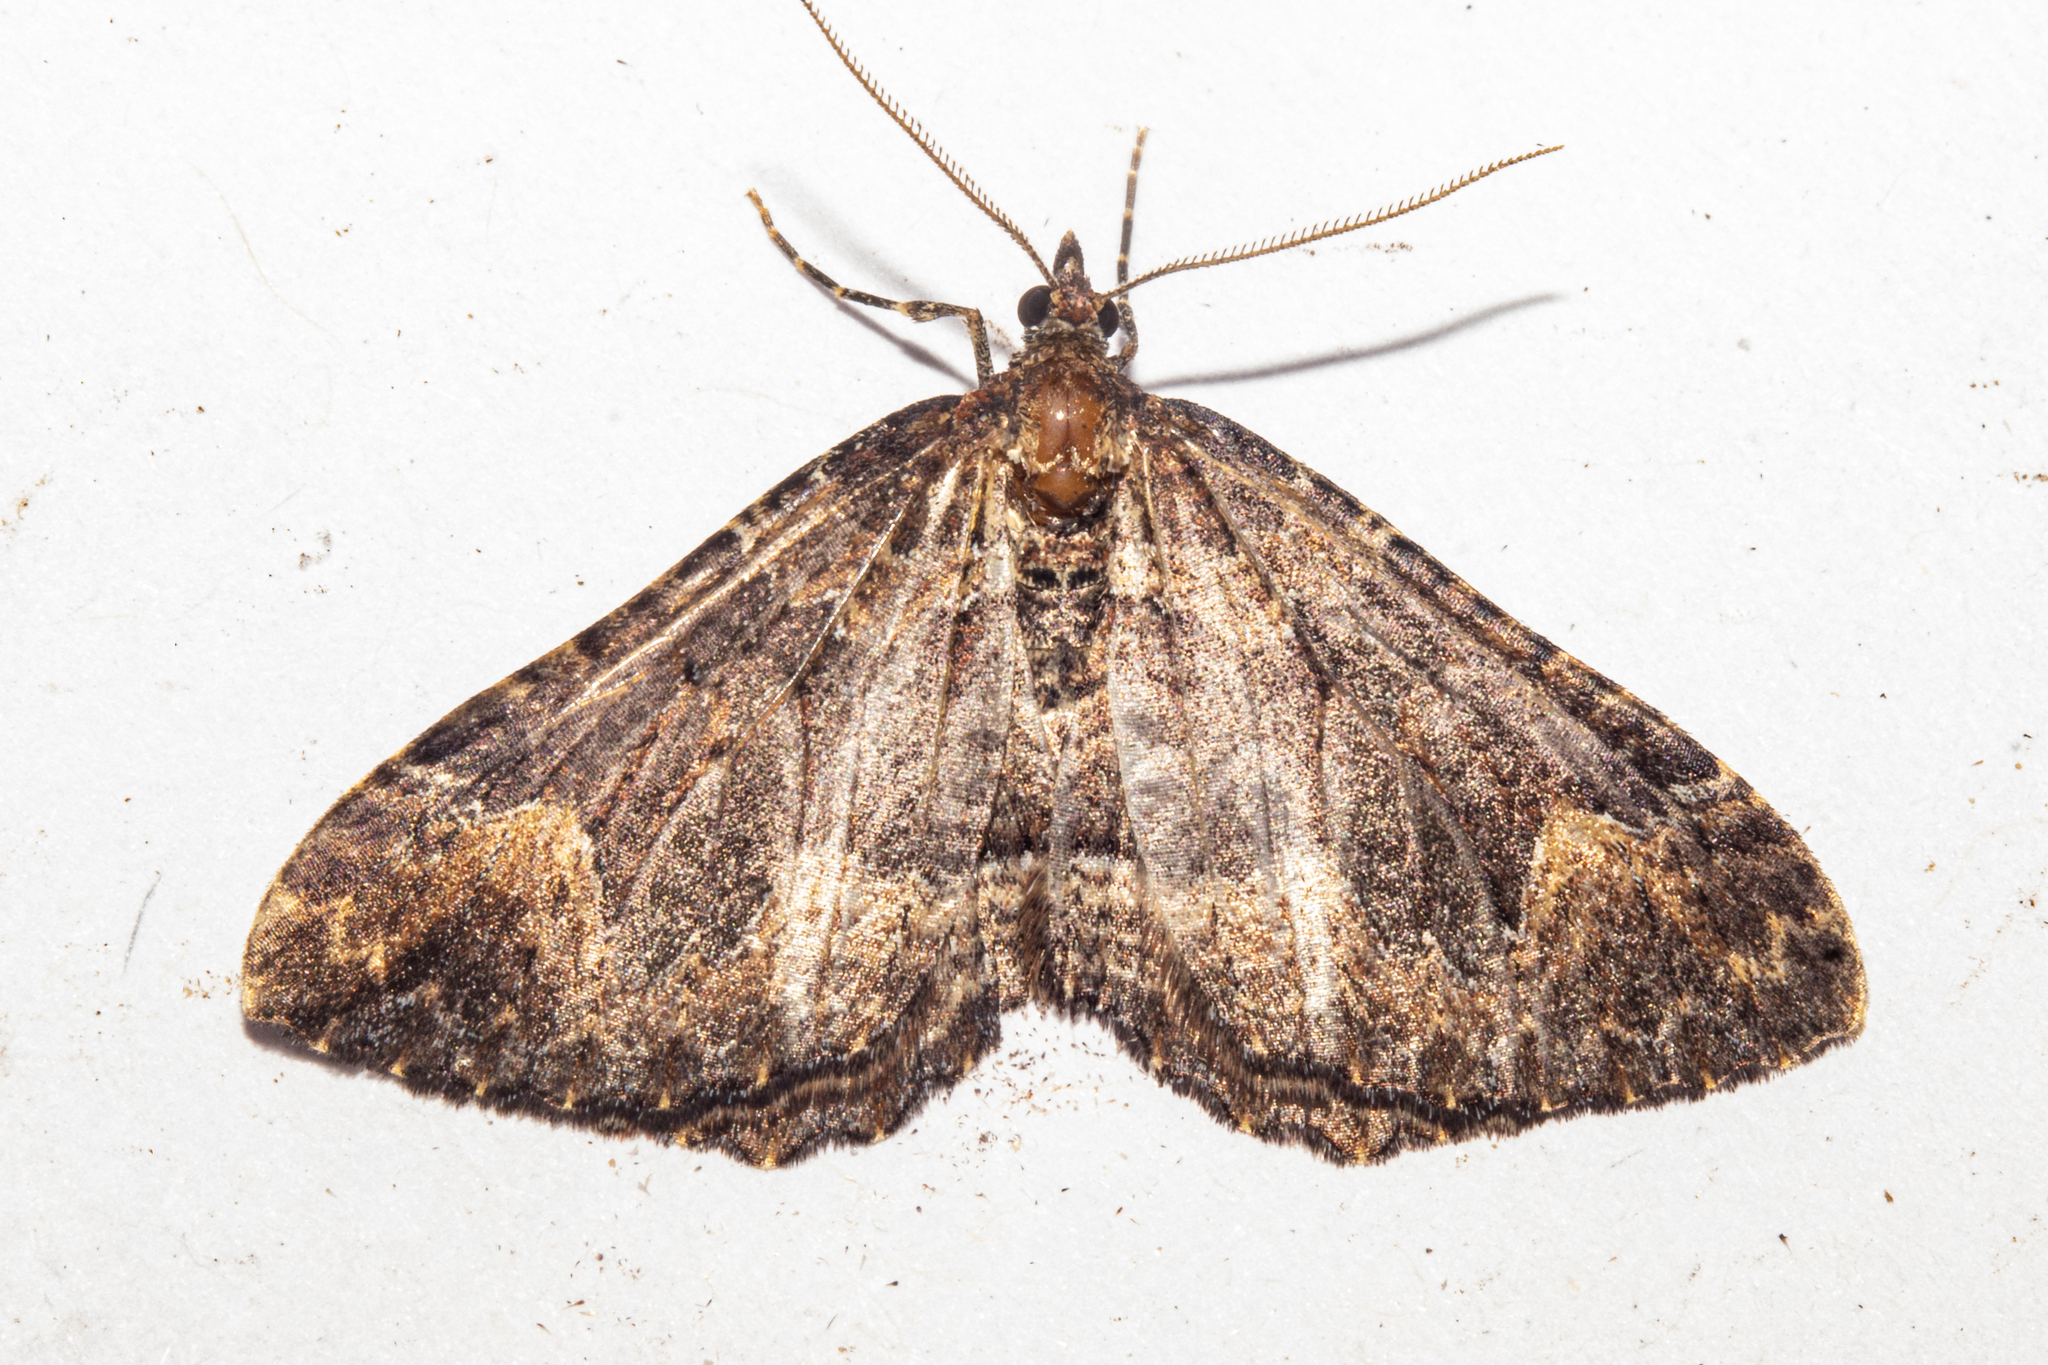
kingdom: Animalia
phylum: Arthropoda
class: Insecta
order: Lepidoptera
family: Geometridae
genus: Austrocidaria
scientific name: Austrocidaria cedrinodes
